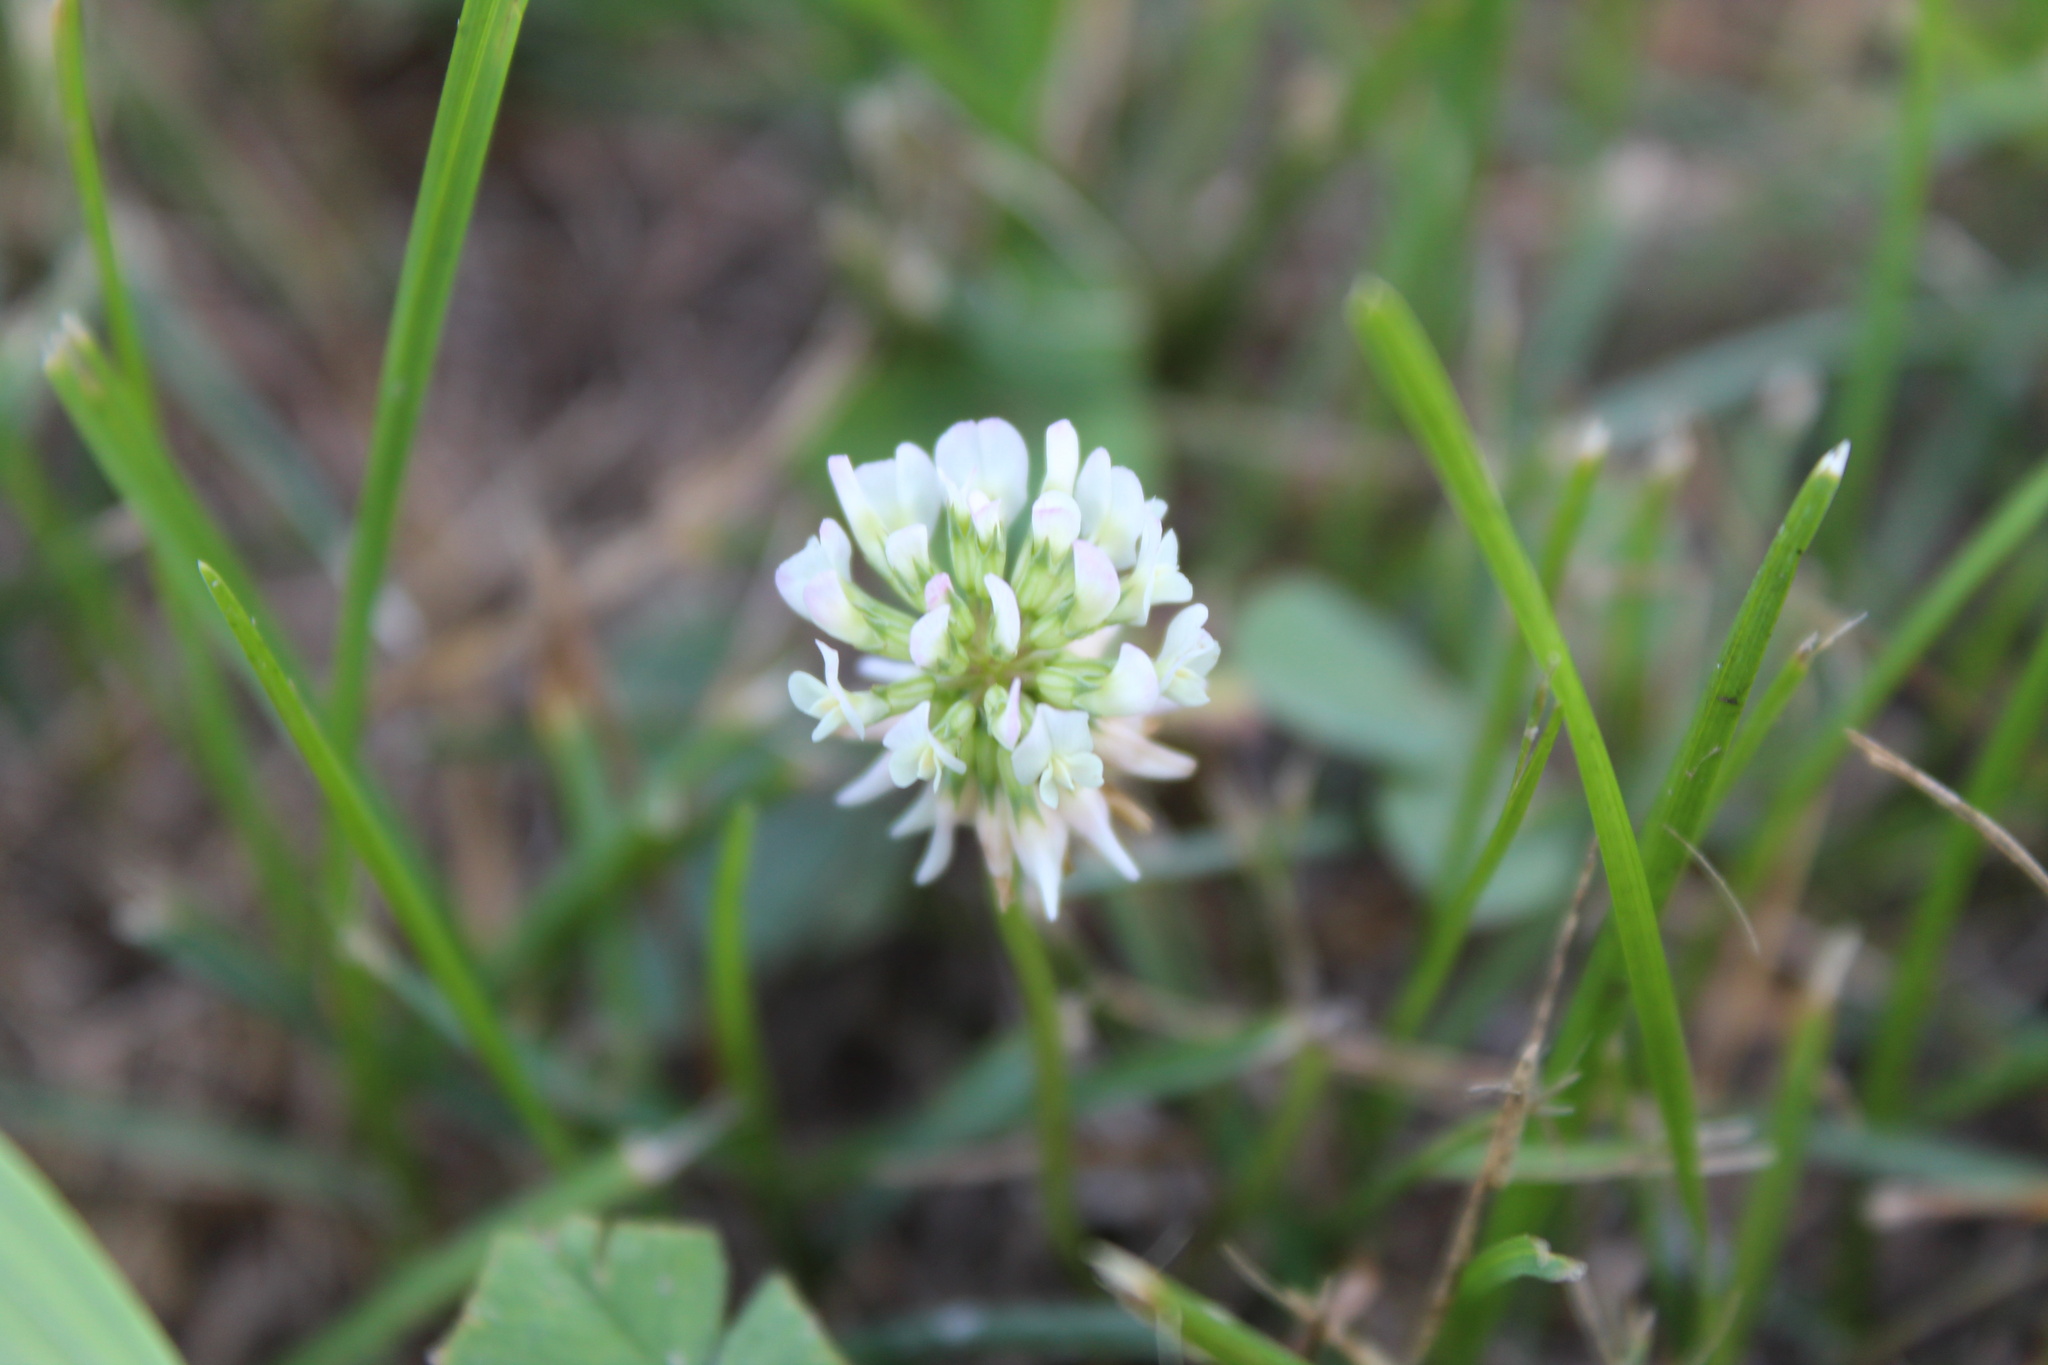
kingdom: Plantae
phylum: Tracheophyta
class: Magnoliopsida
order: Fabales
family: Fabaceae
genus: Trifolium
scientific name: Trifolium repens
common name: White clover
